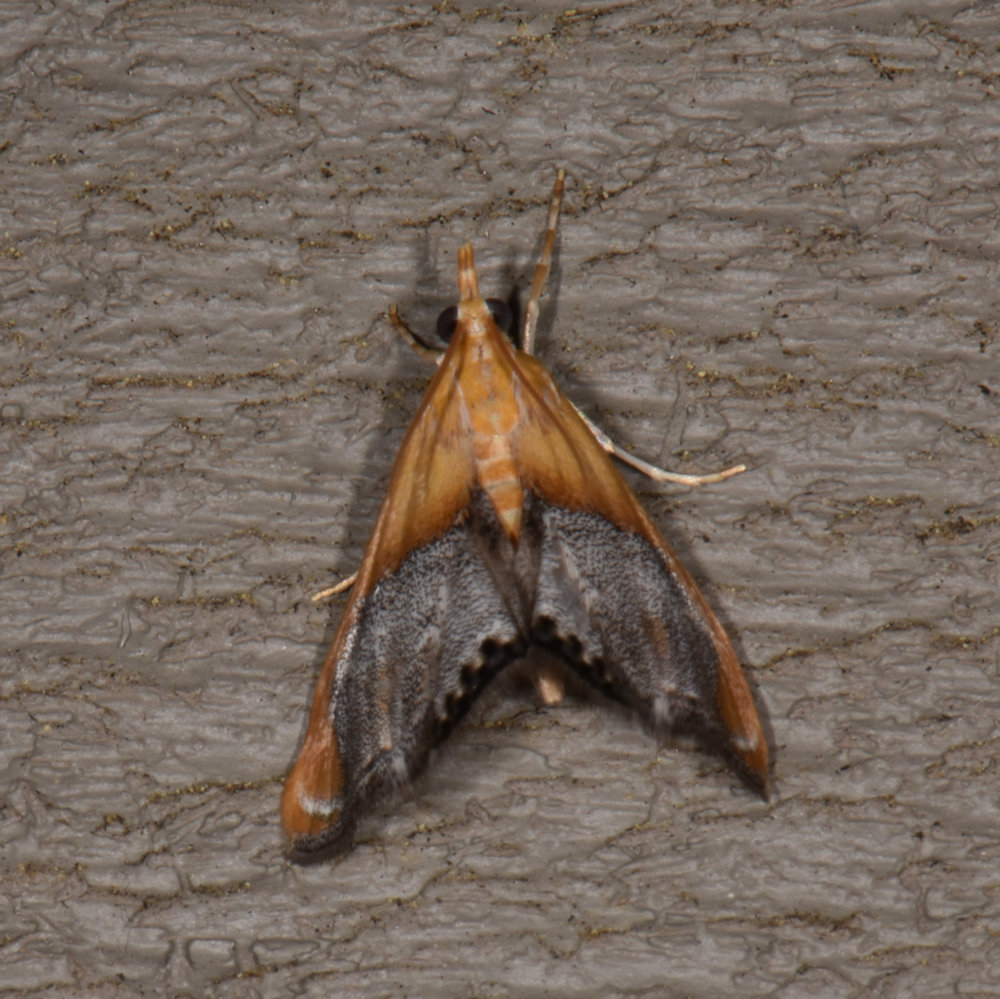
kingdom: Animalia
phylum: Arthropoda
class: Insecta
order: Lepidoptera
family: Crambidae
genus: Chalcoela
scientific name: Chalcoela iphitalis
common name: Sooty-winged chalcoela moth
